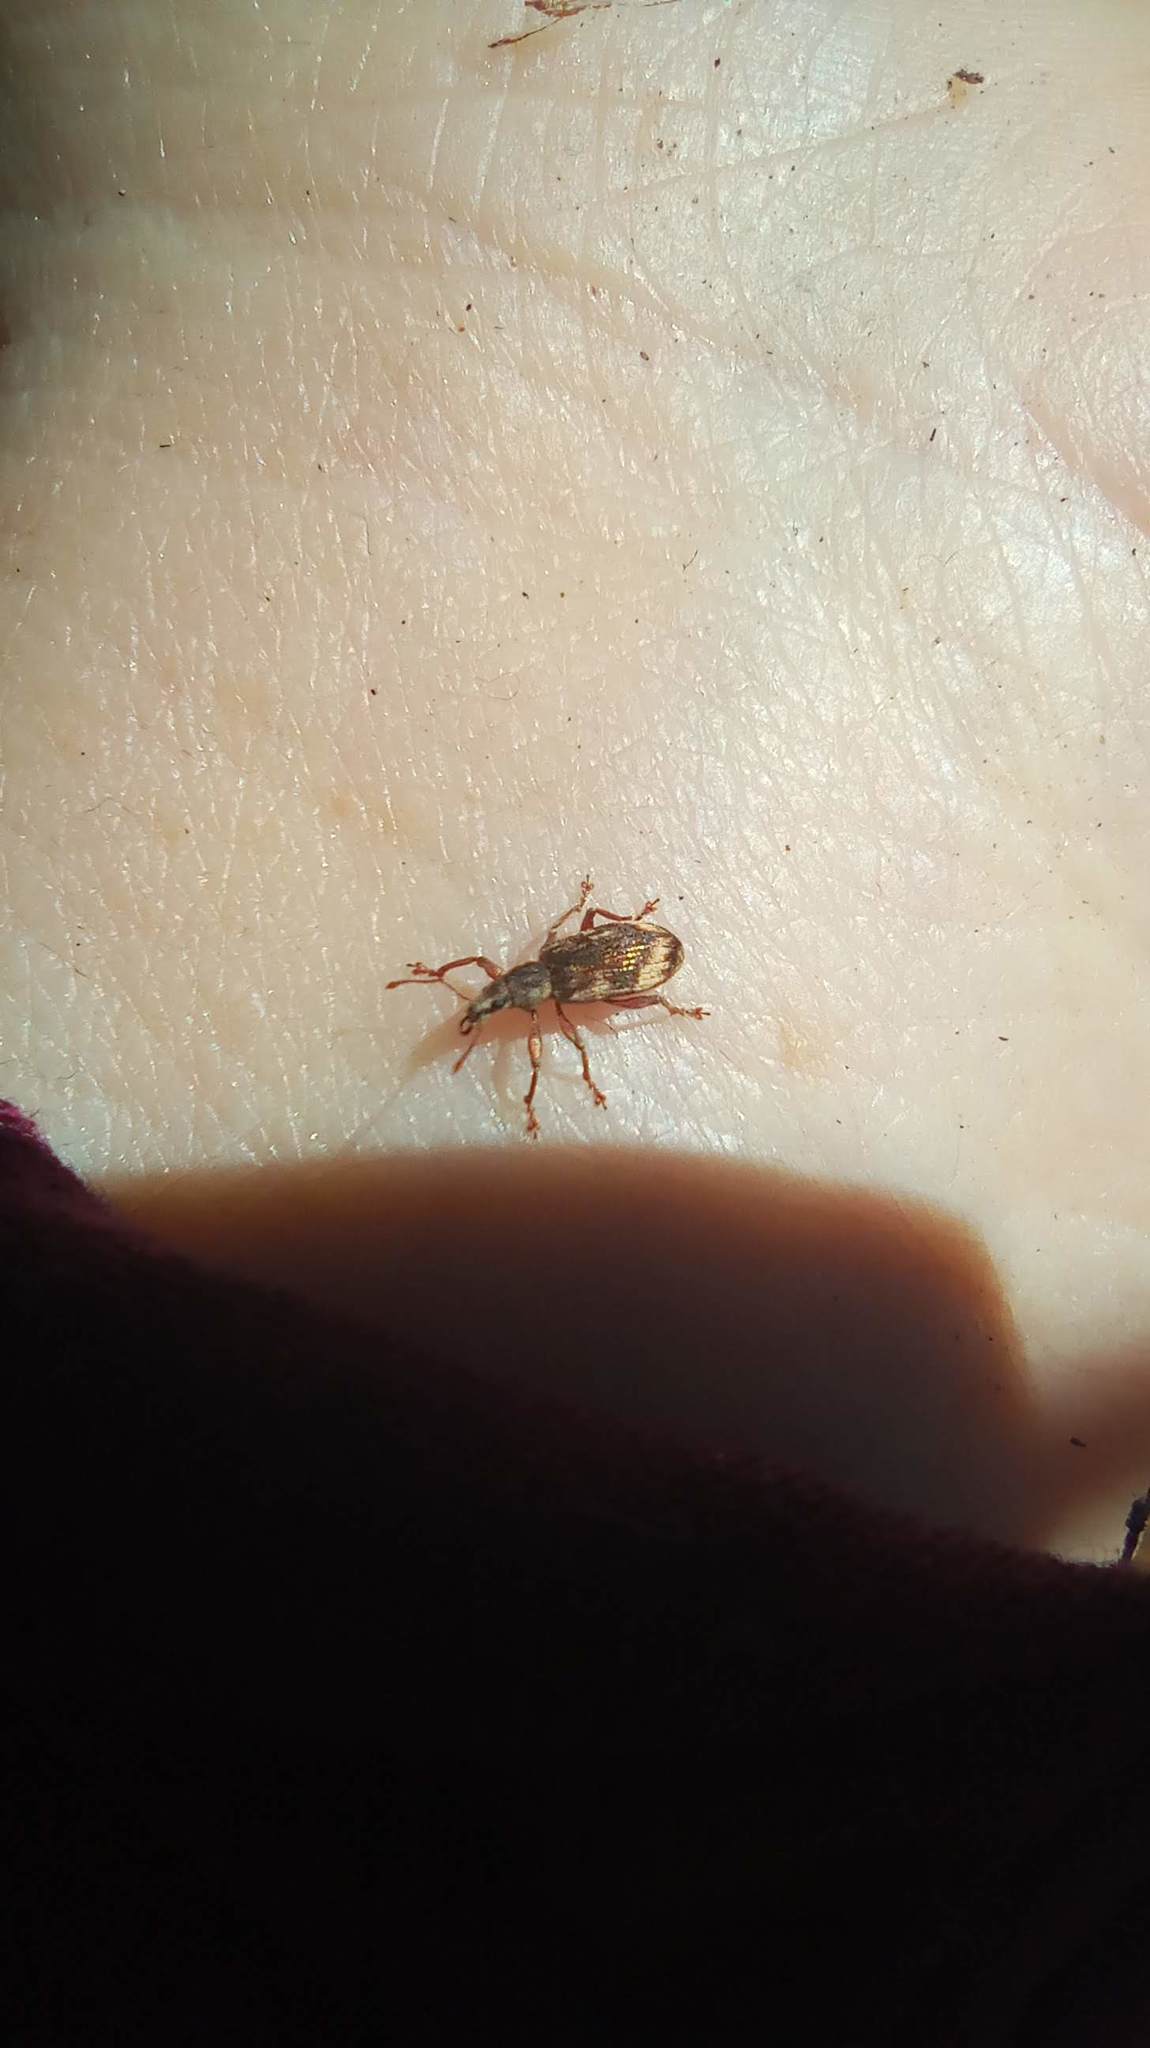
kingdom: Animalia
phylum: Arthropoda
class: Insecta
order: Coleoptera
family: Curculionidae
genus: Polydrusus
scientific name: Polydrusus tereticollis
